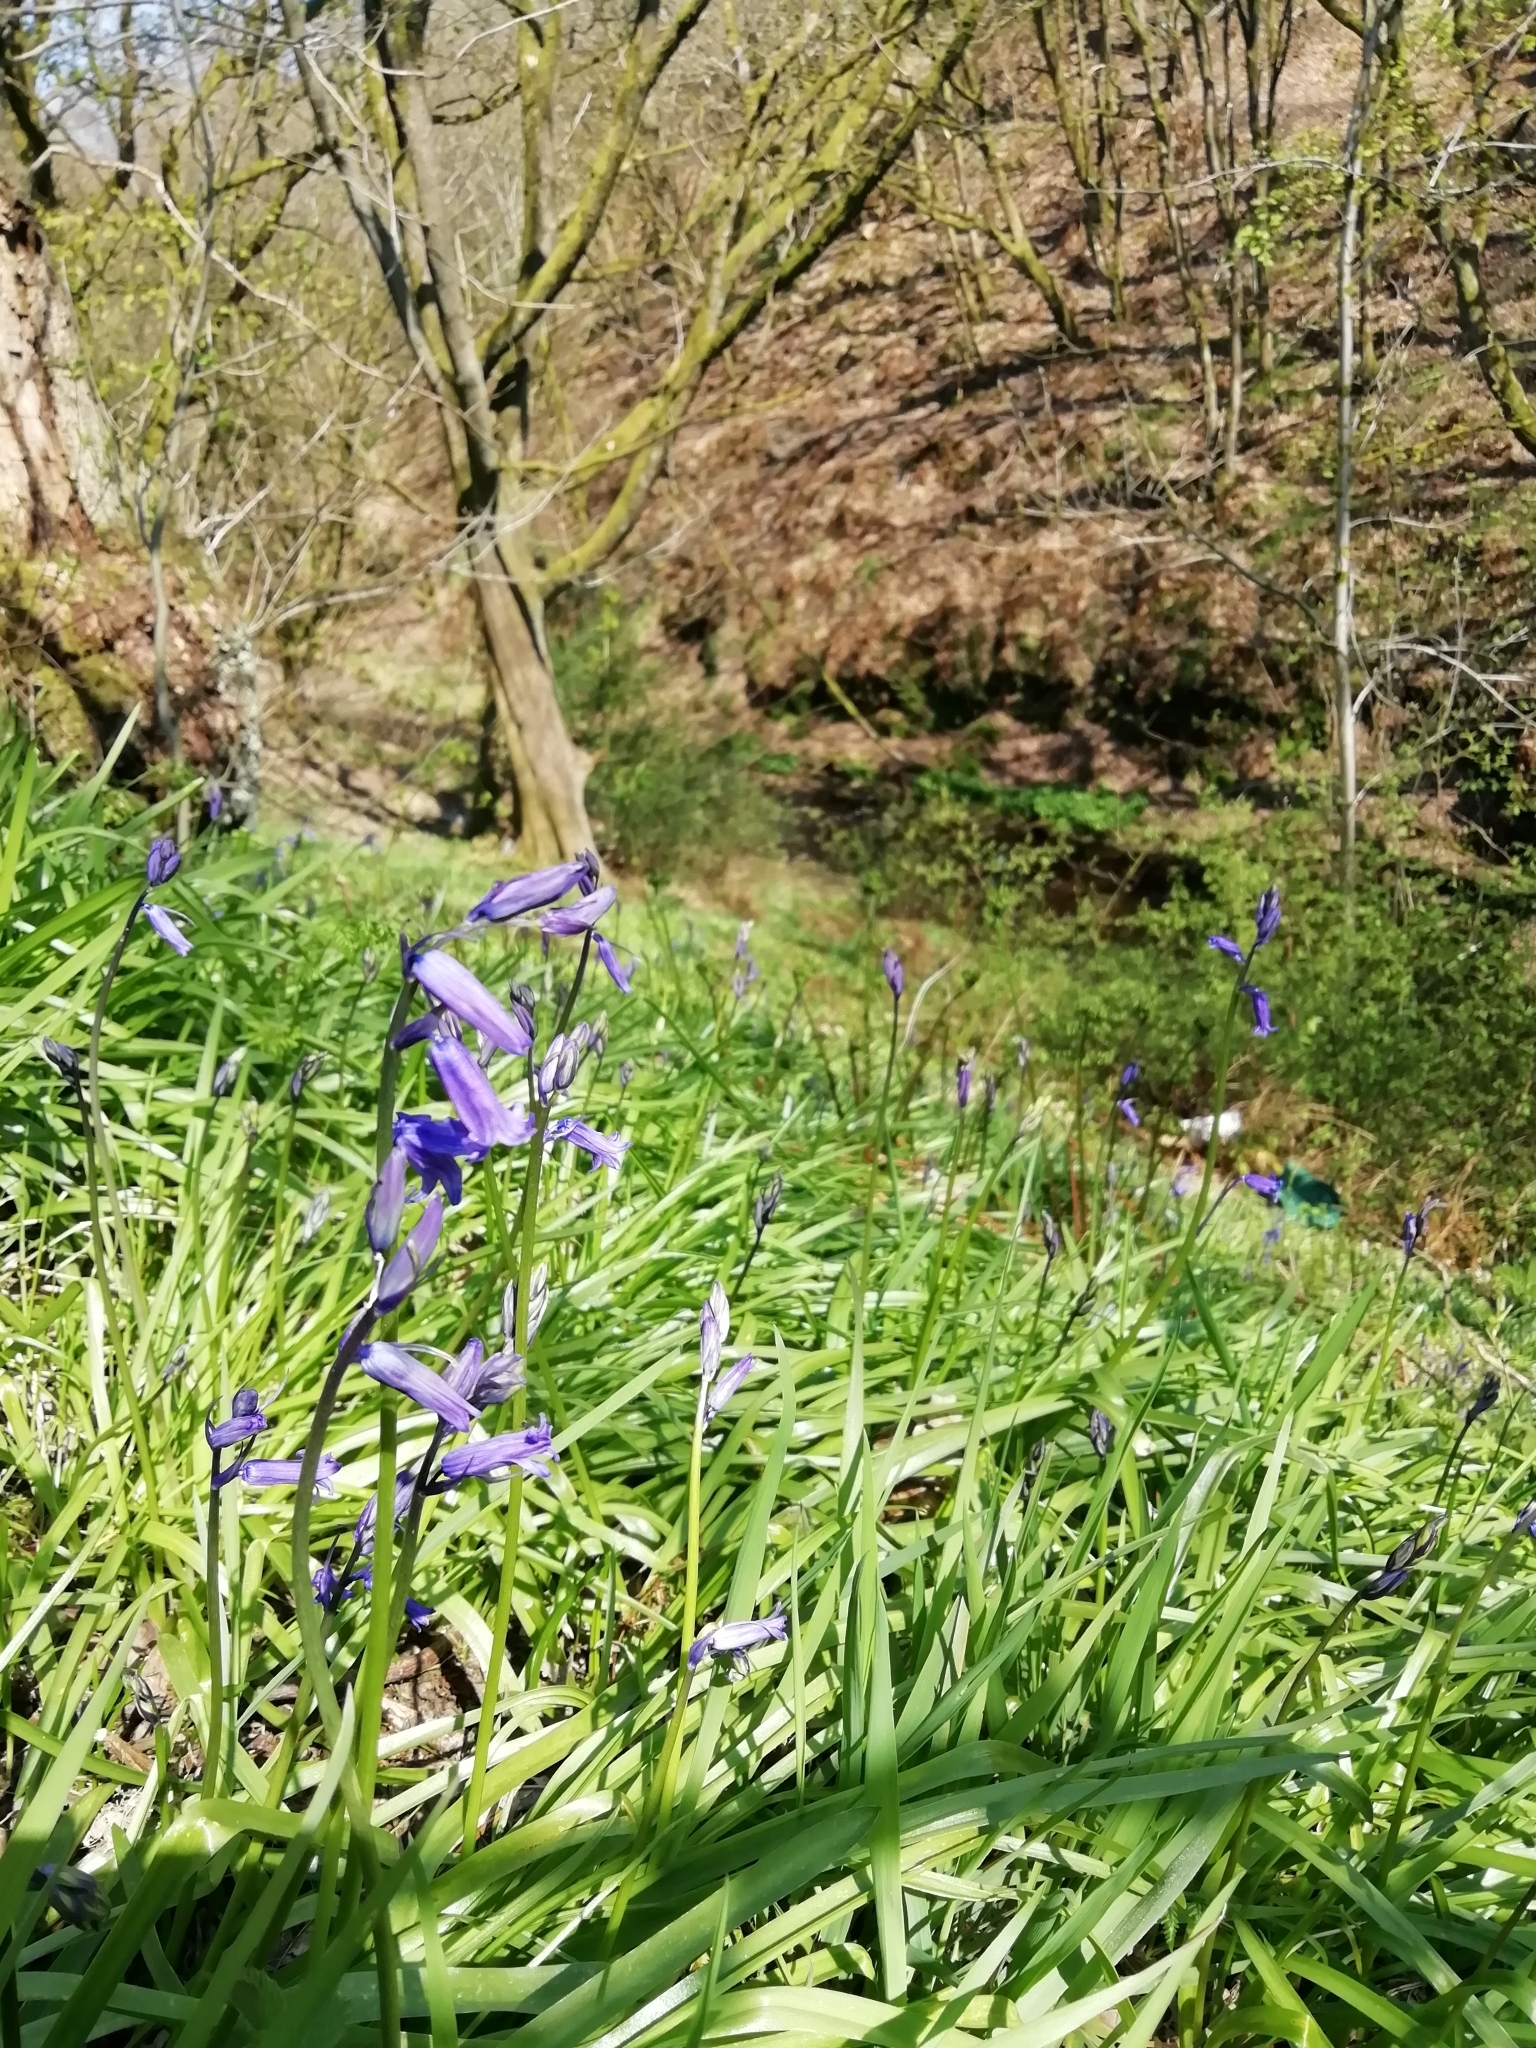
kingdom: Plantae
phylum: Tracheophyta
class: Liliopsida
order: Asparagales
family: Asparagaceae
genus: Hyacinthoides
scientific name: Hyacinthoides non-scripta
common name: Bluebell
